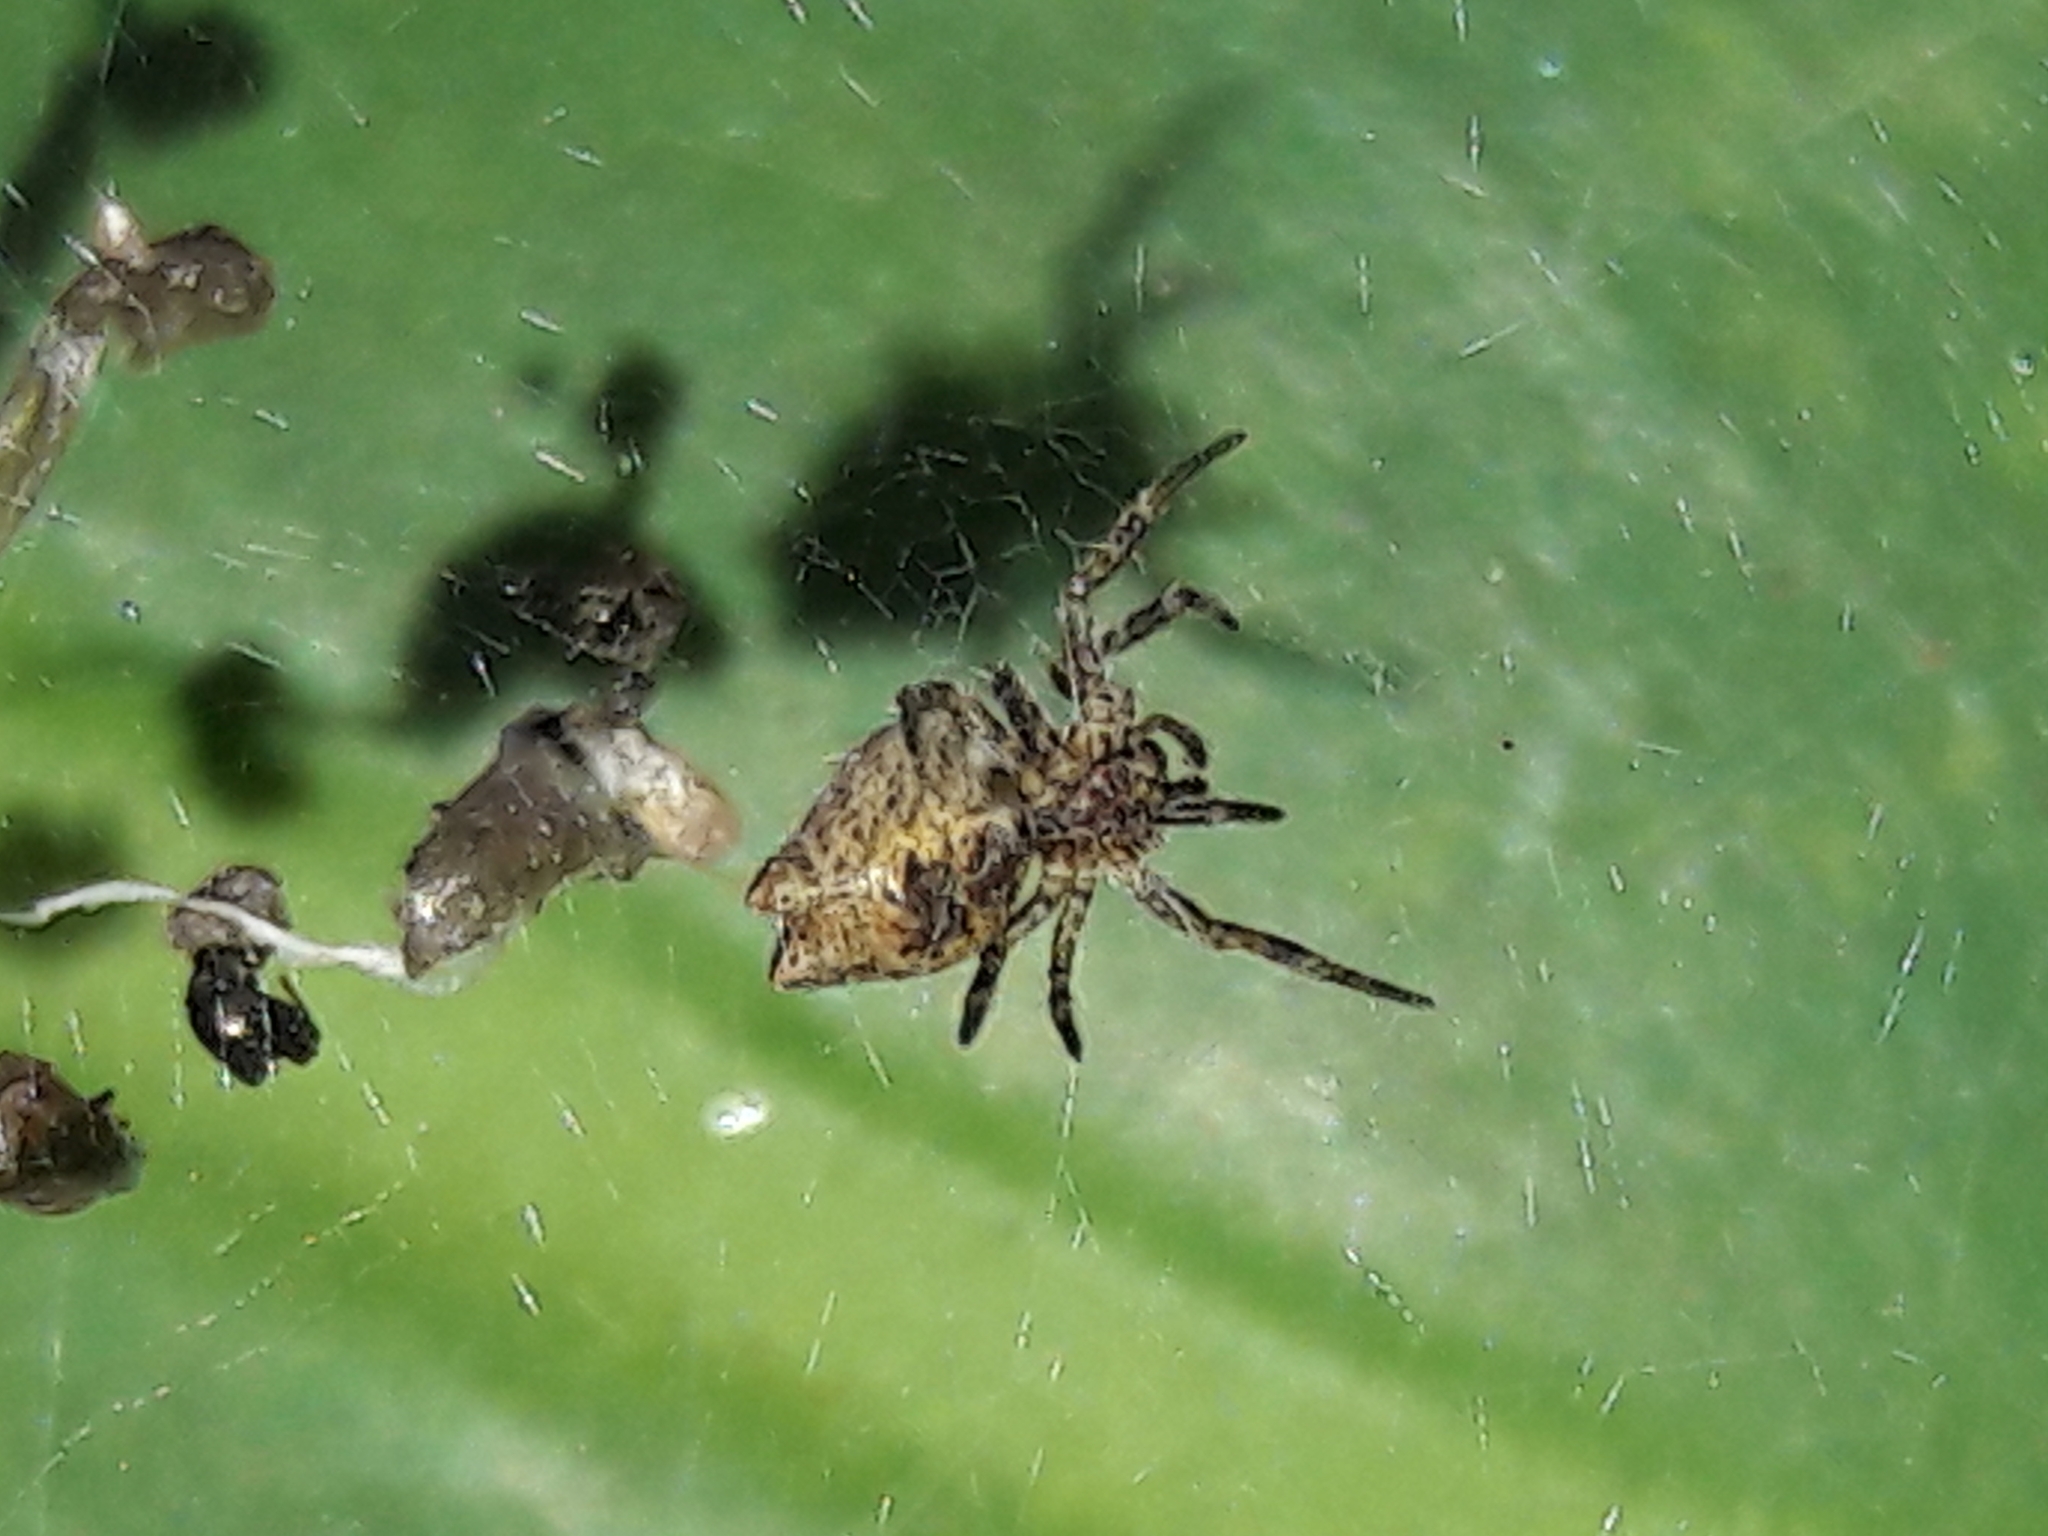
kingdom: Animalia
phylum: Arthropoda
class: Arachnida
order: Araneae
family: Araneidae
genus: Cyrtophora
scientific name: Cyrtophora citricola
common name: Orb weavers
